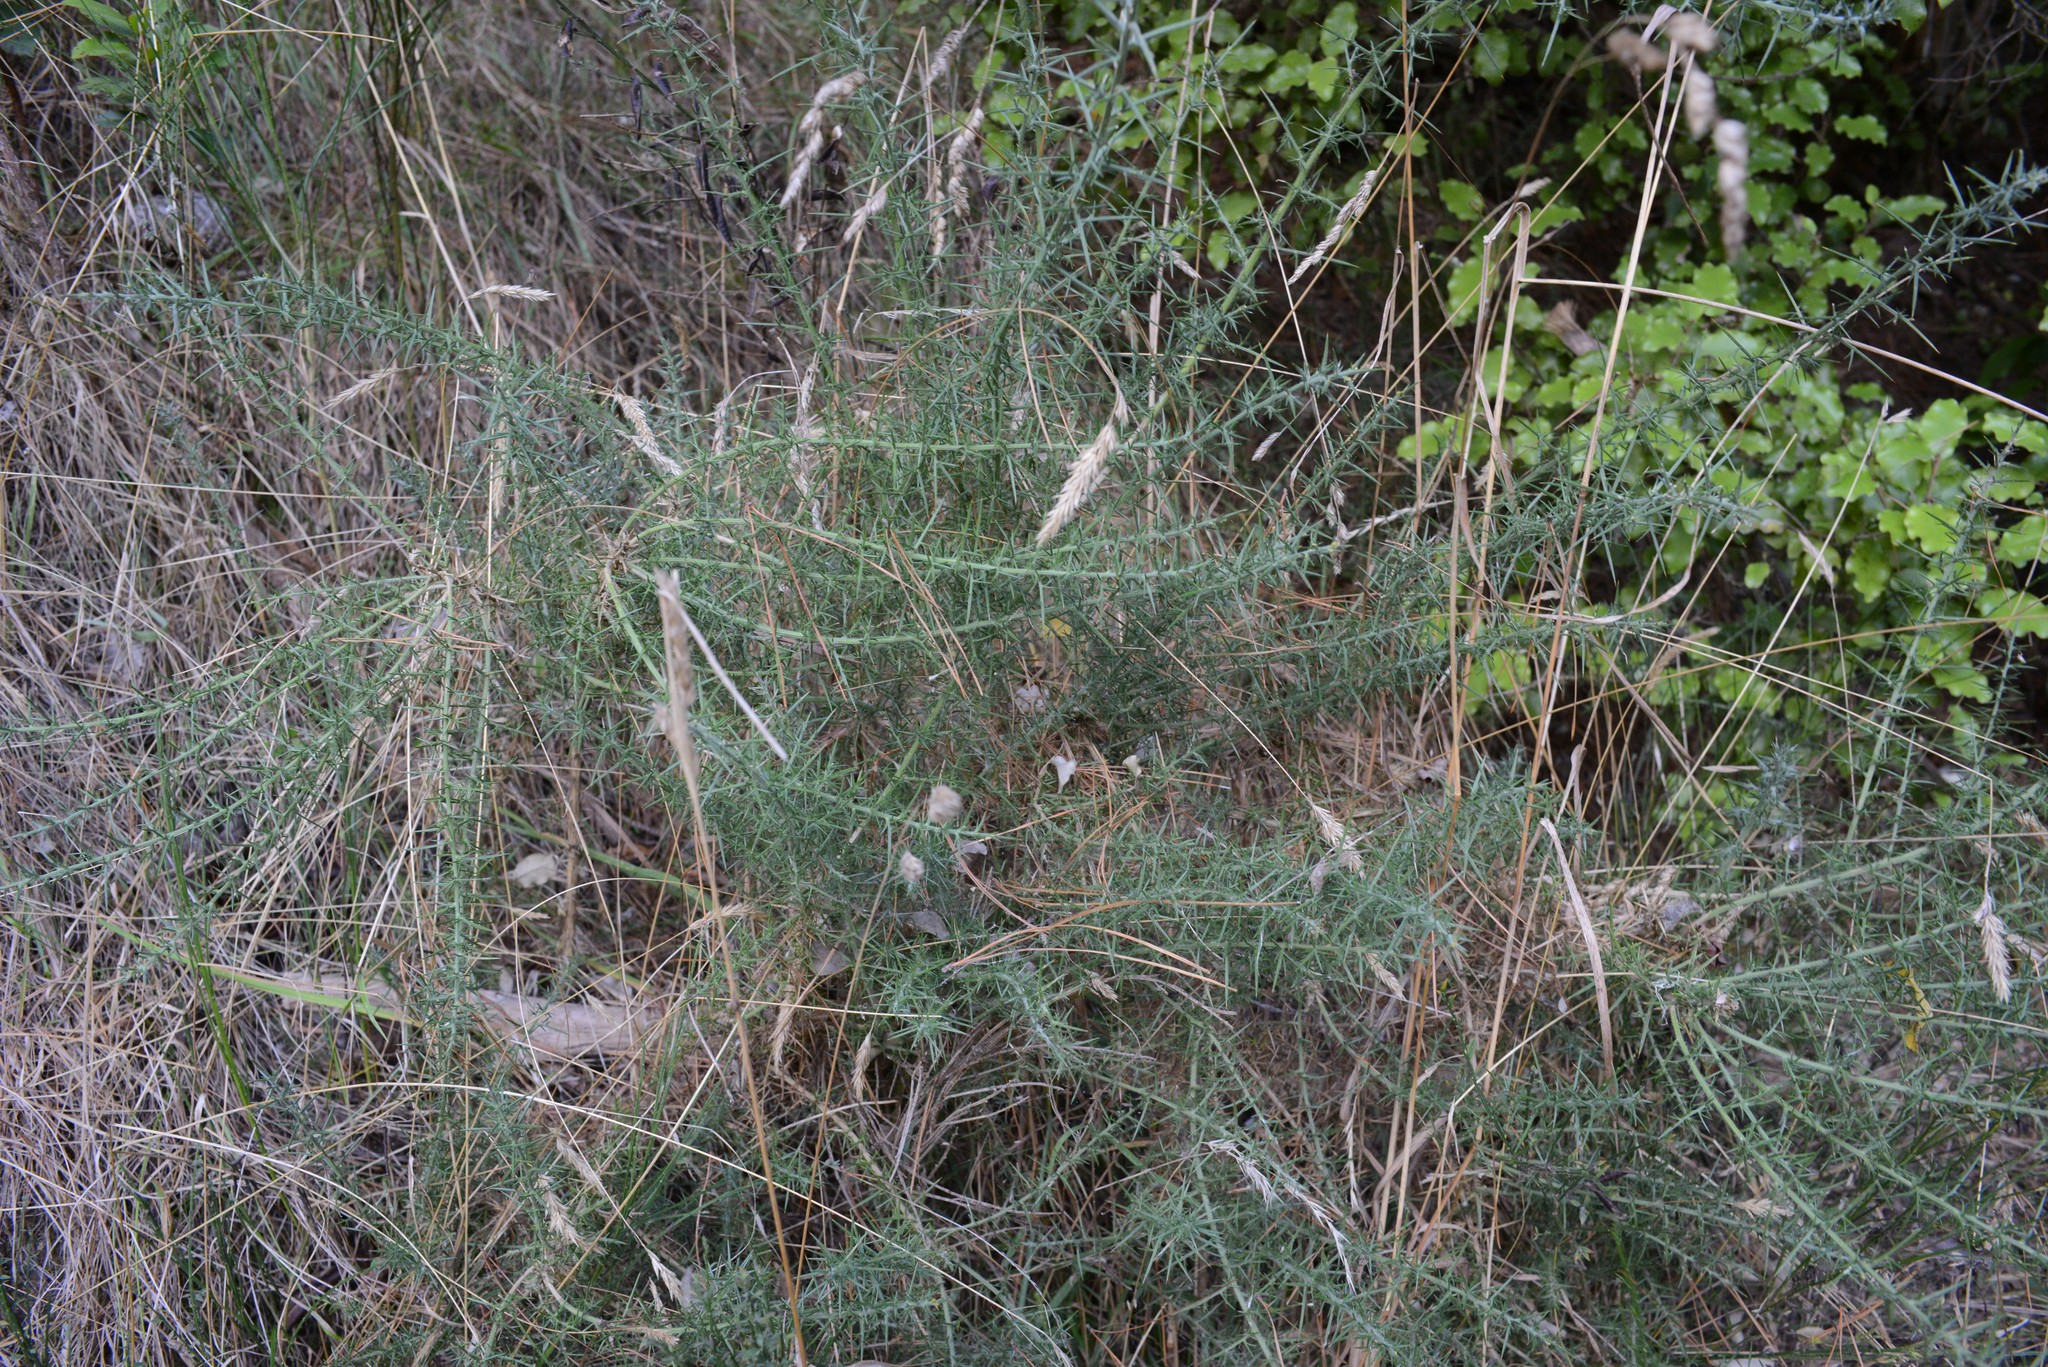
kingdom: Plantae
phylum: Tracheophyta
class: Magnoliopsida
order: Fabales
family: Fabaceae
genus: Ulex
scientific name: Ulex europaeus
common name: Common gorse
